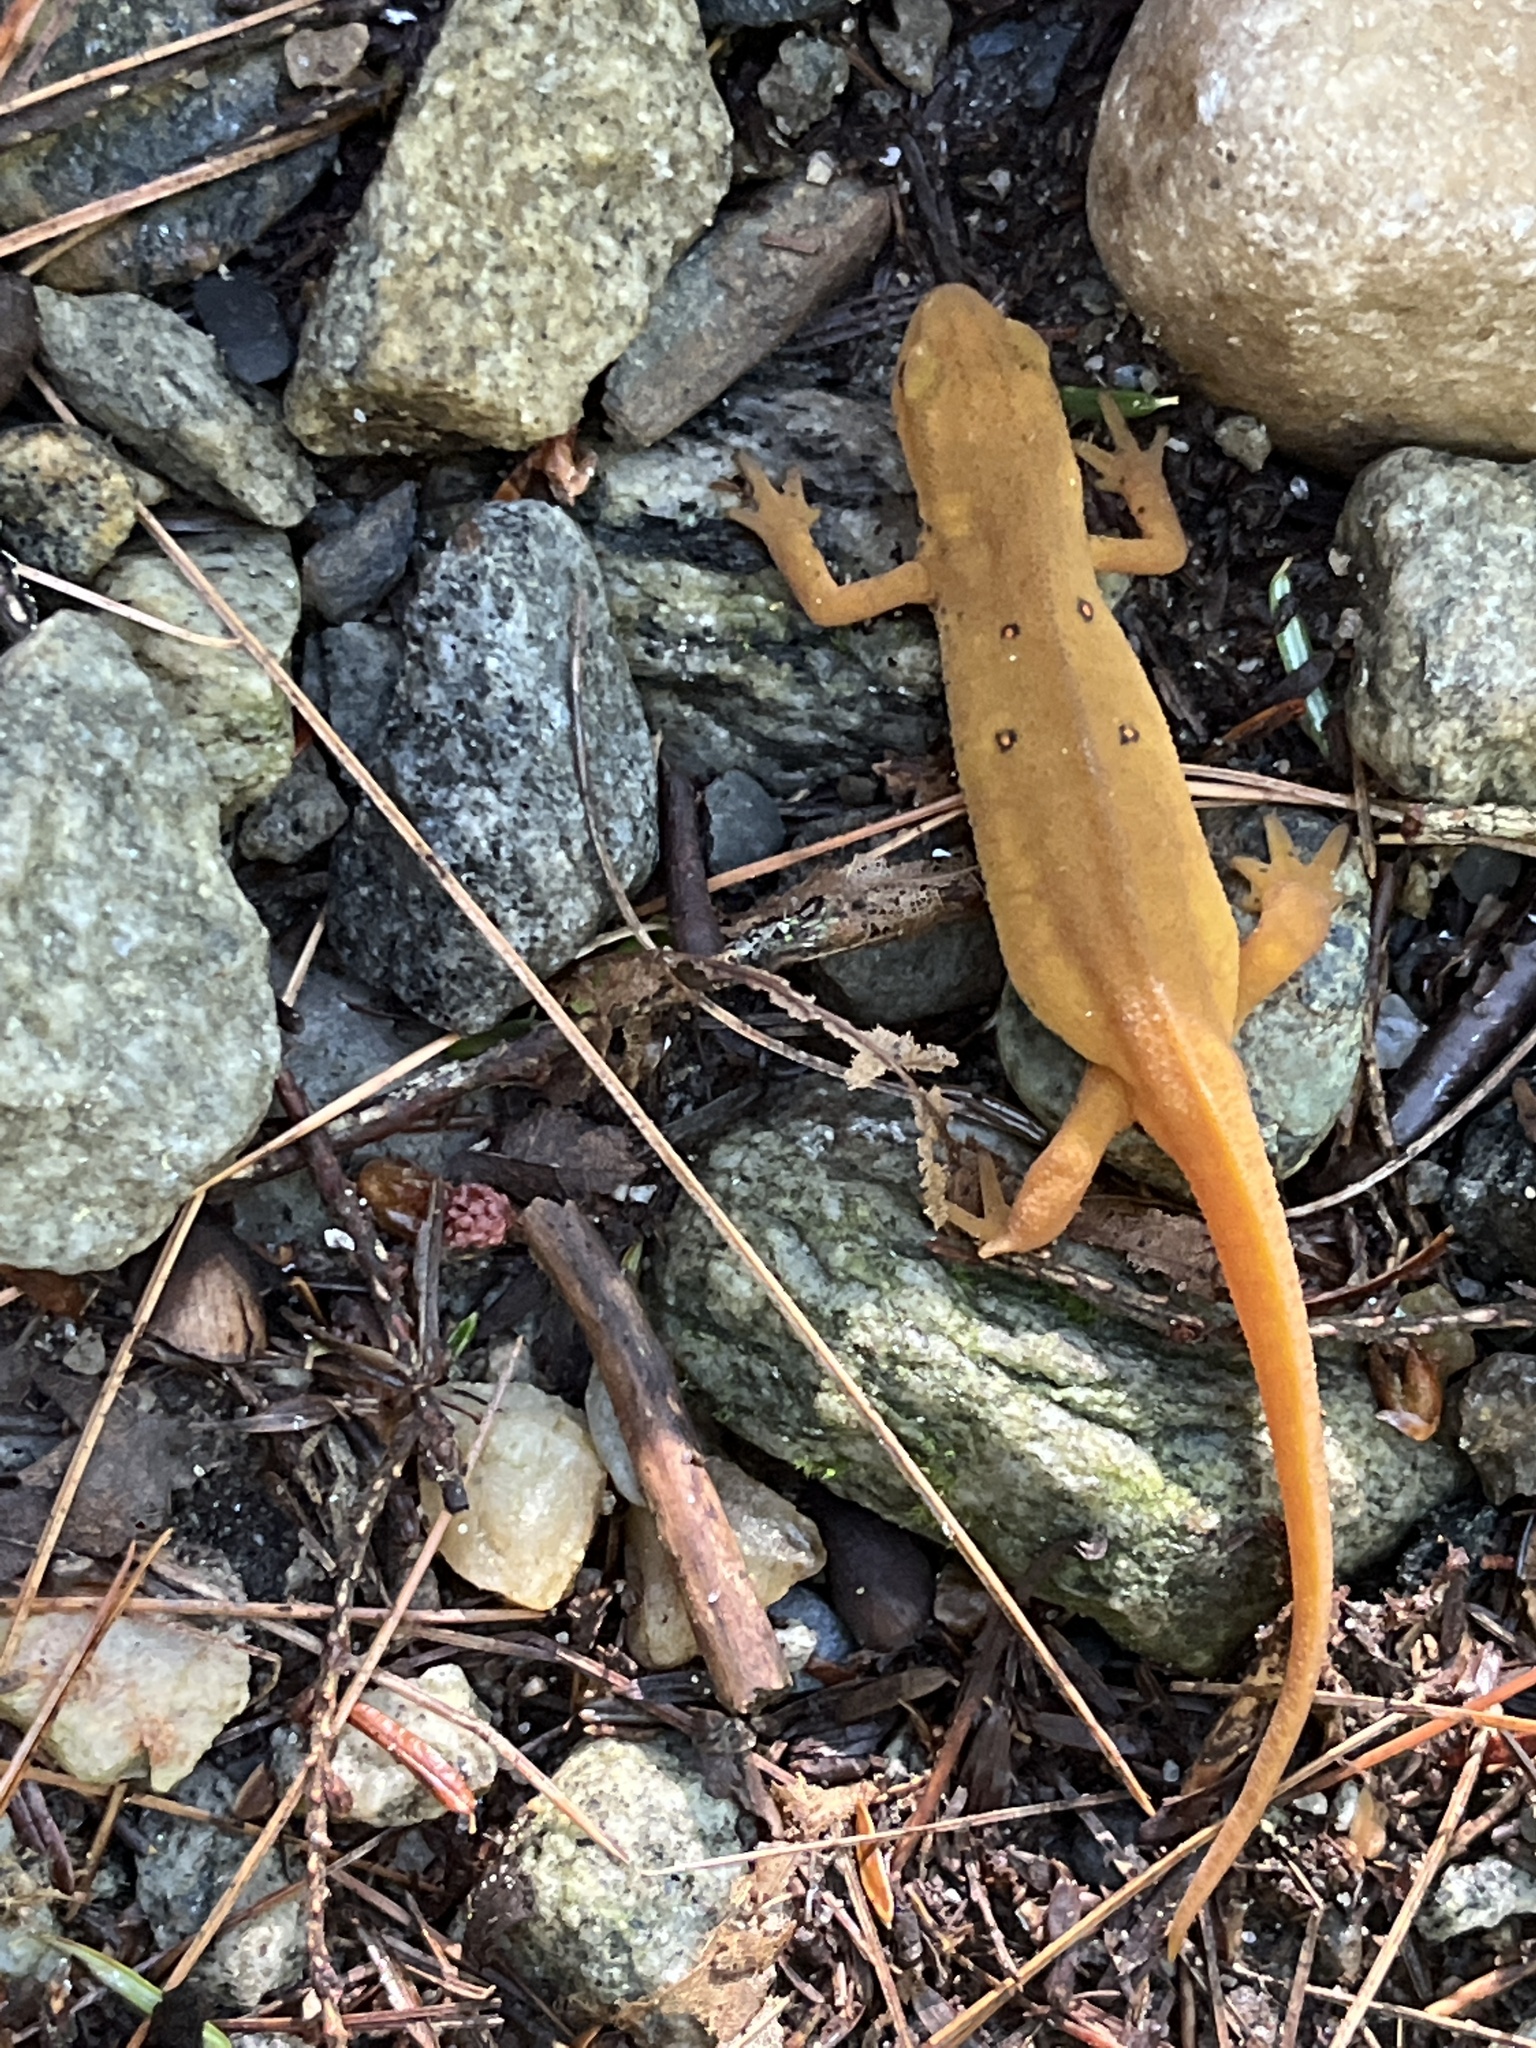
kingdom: Animalia
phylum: Chordata
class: Amphibia
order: Caudata
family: Salamandridae
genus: Notophthalmus
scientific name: Notophthalmus viridescens
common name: Eastern newt
